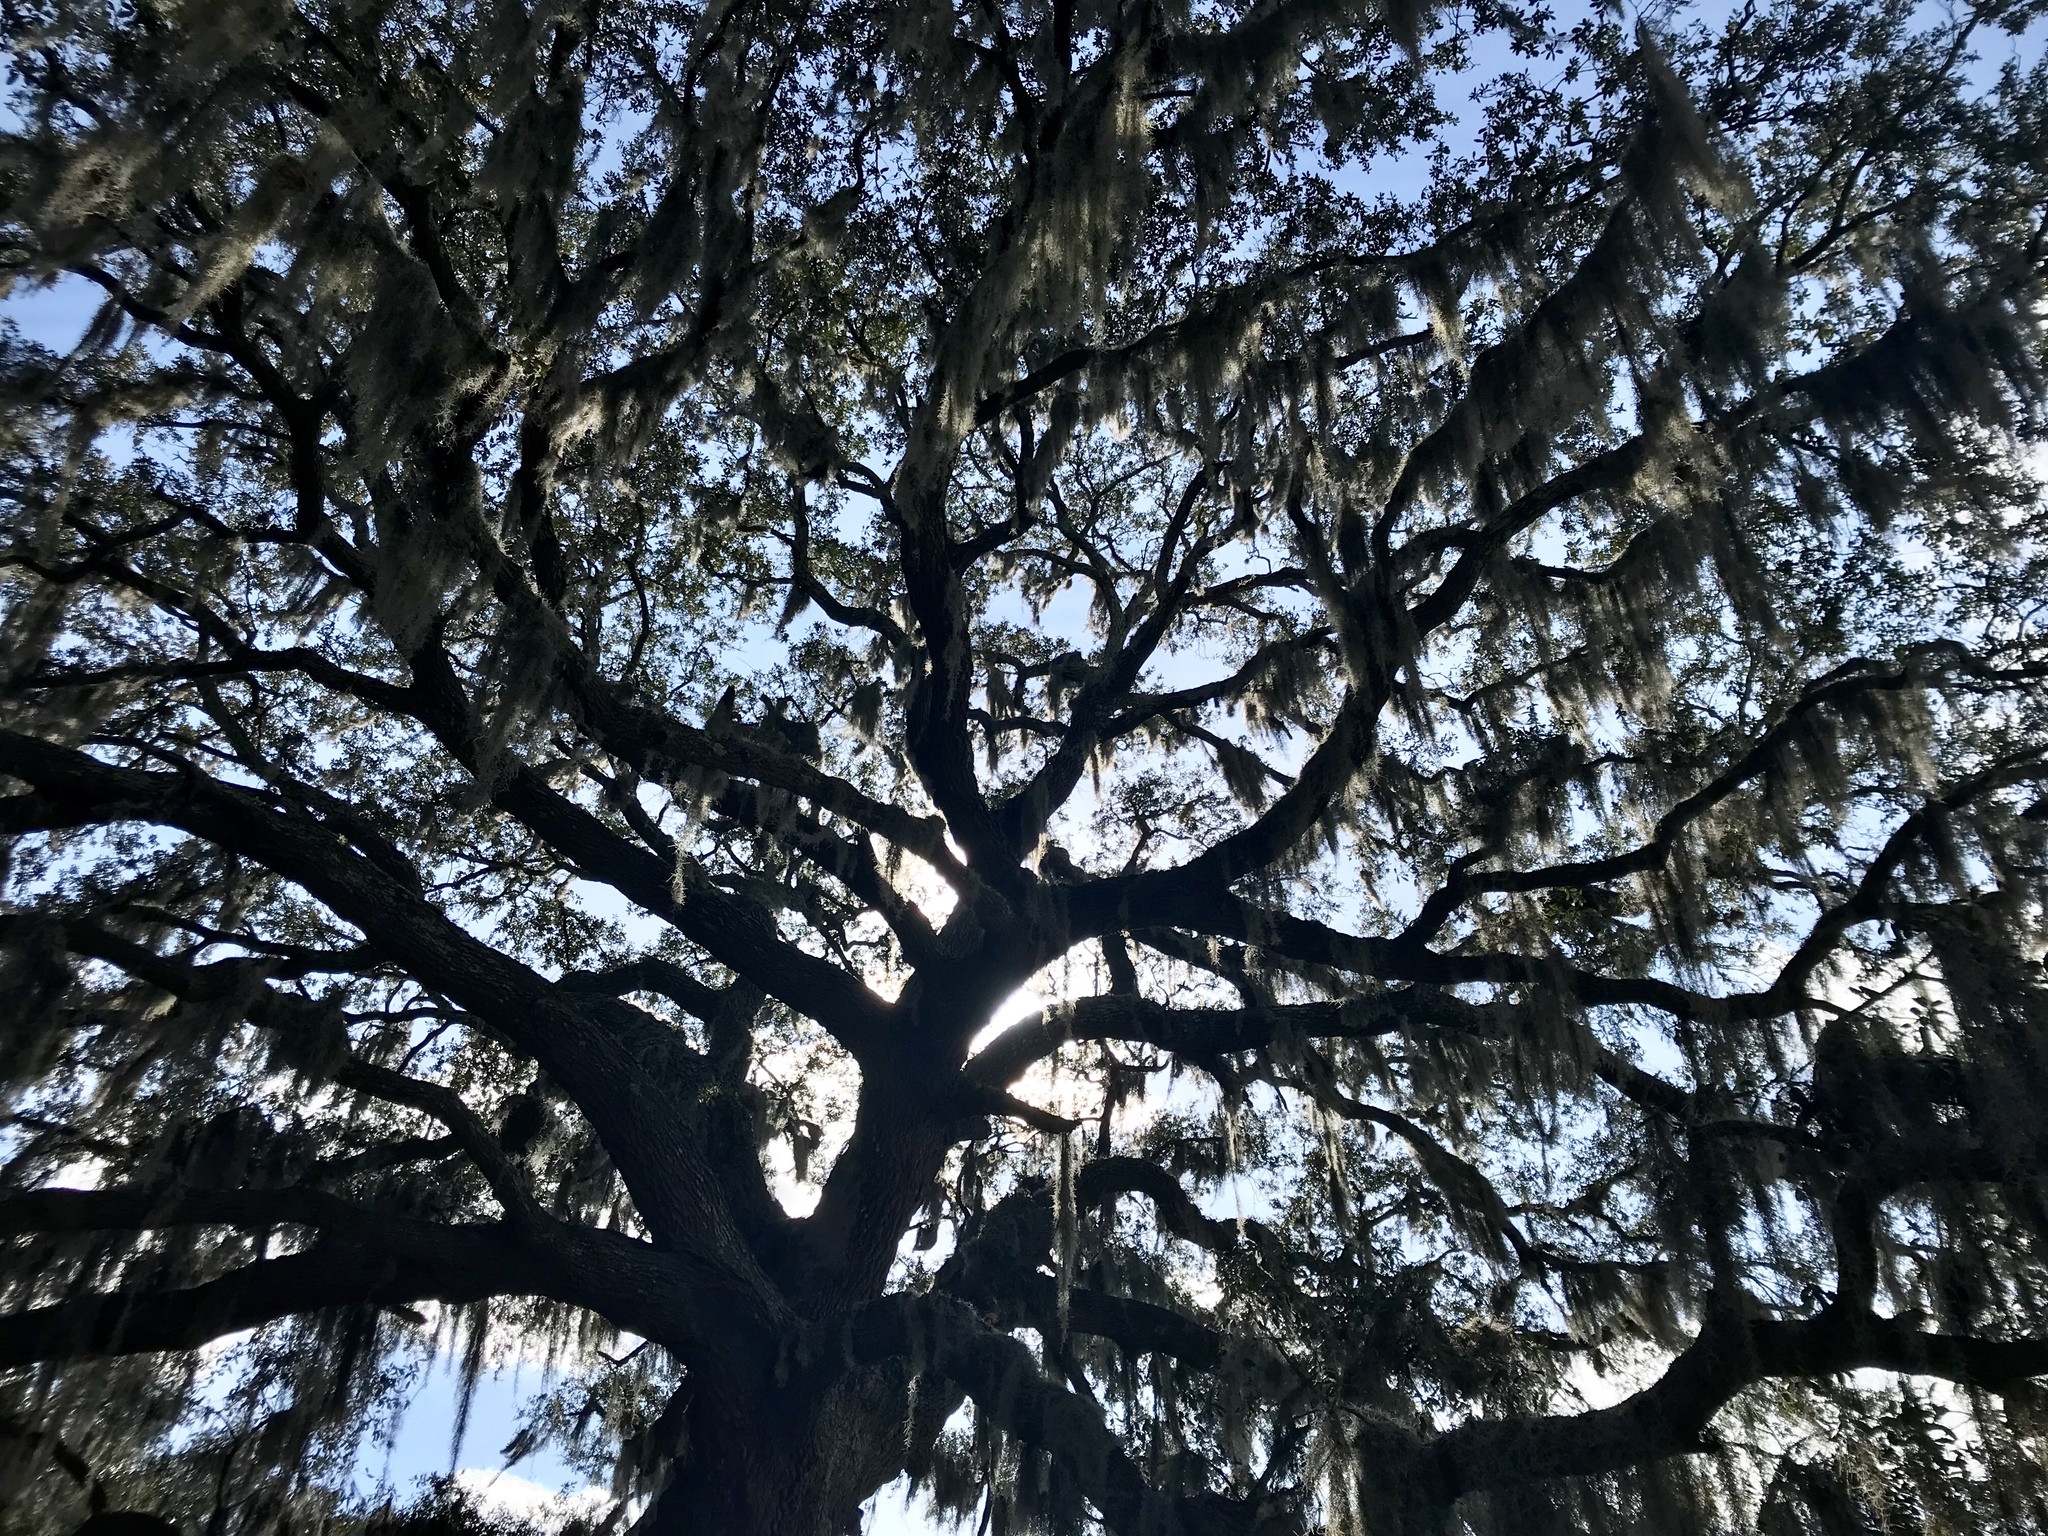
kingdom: Plantae
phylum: Tracheophyta
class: Magnoliopsida
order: Fagales
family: Fagaceae
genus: Quercus
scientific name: Quercus virginiana
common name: Southern live oak
